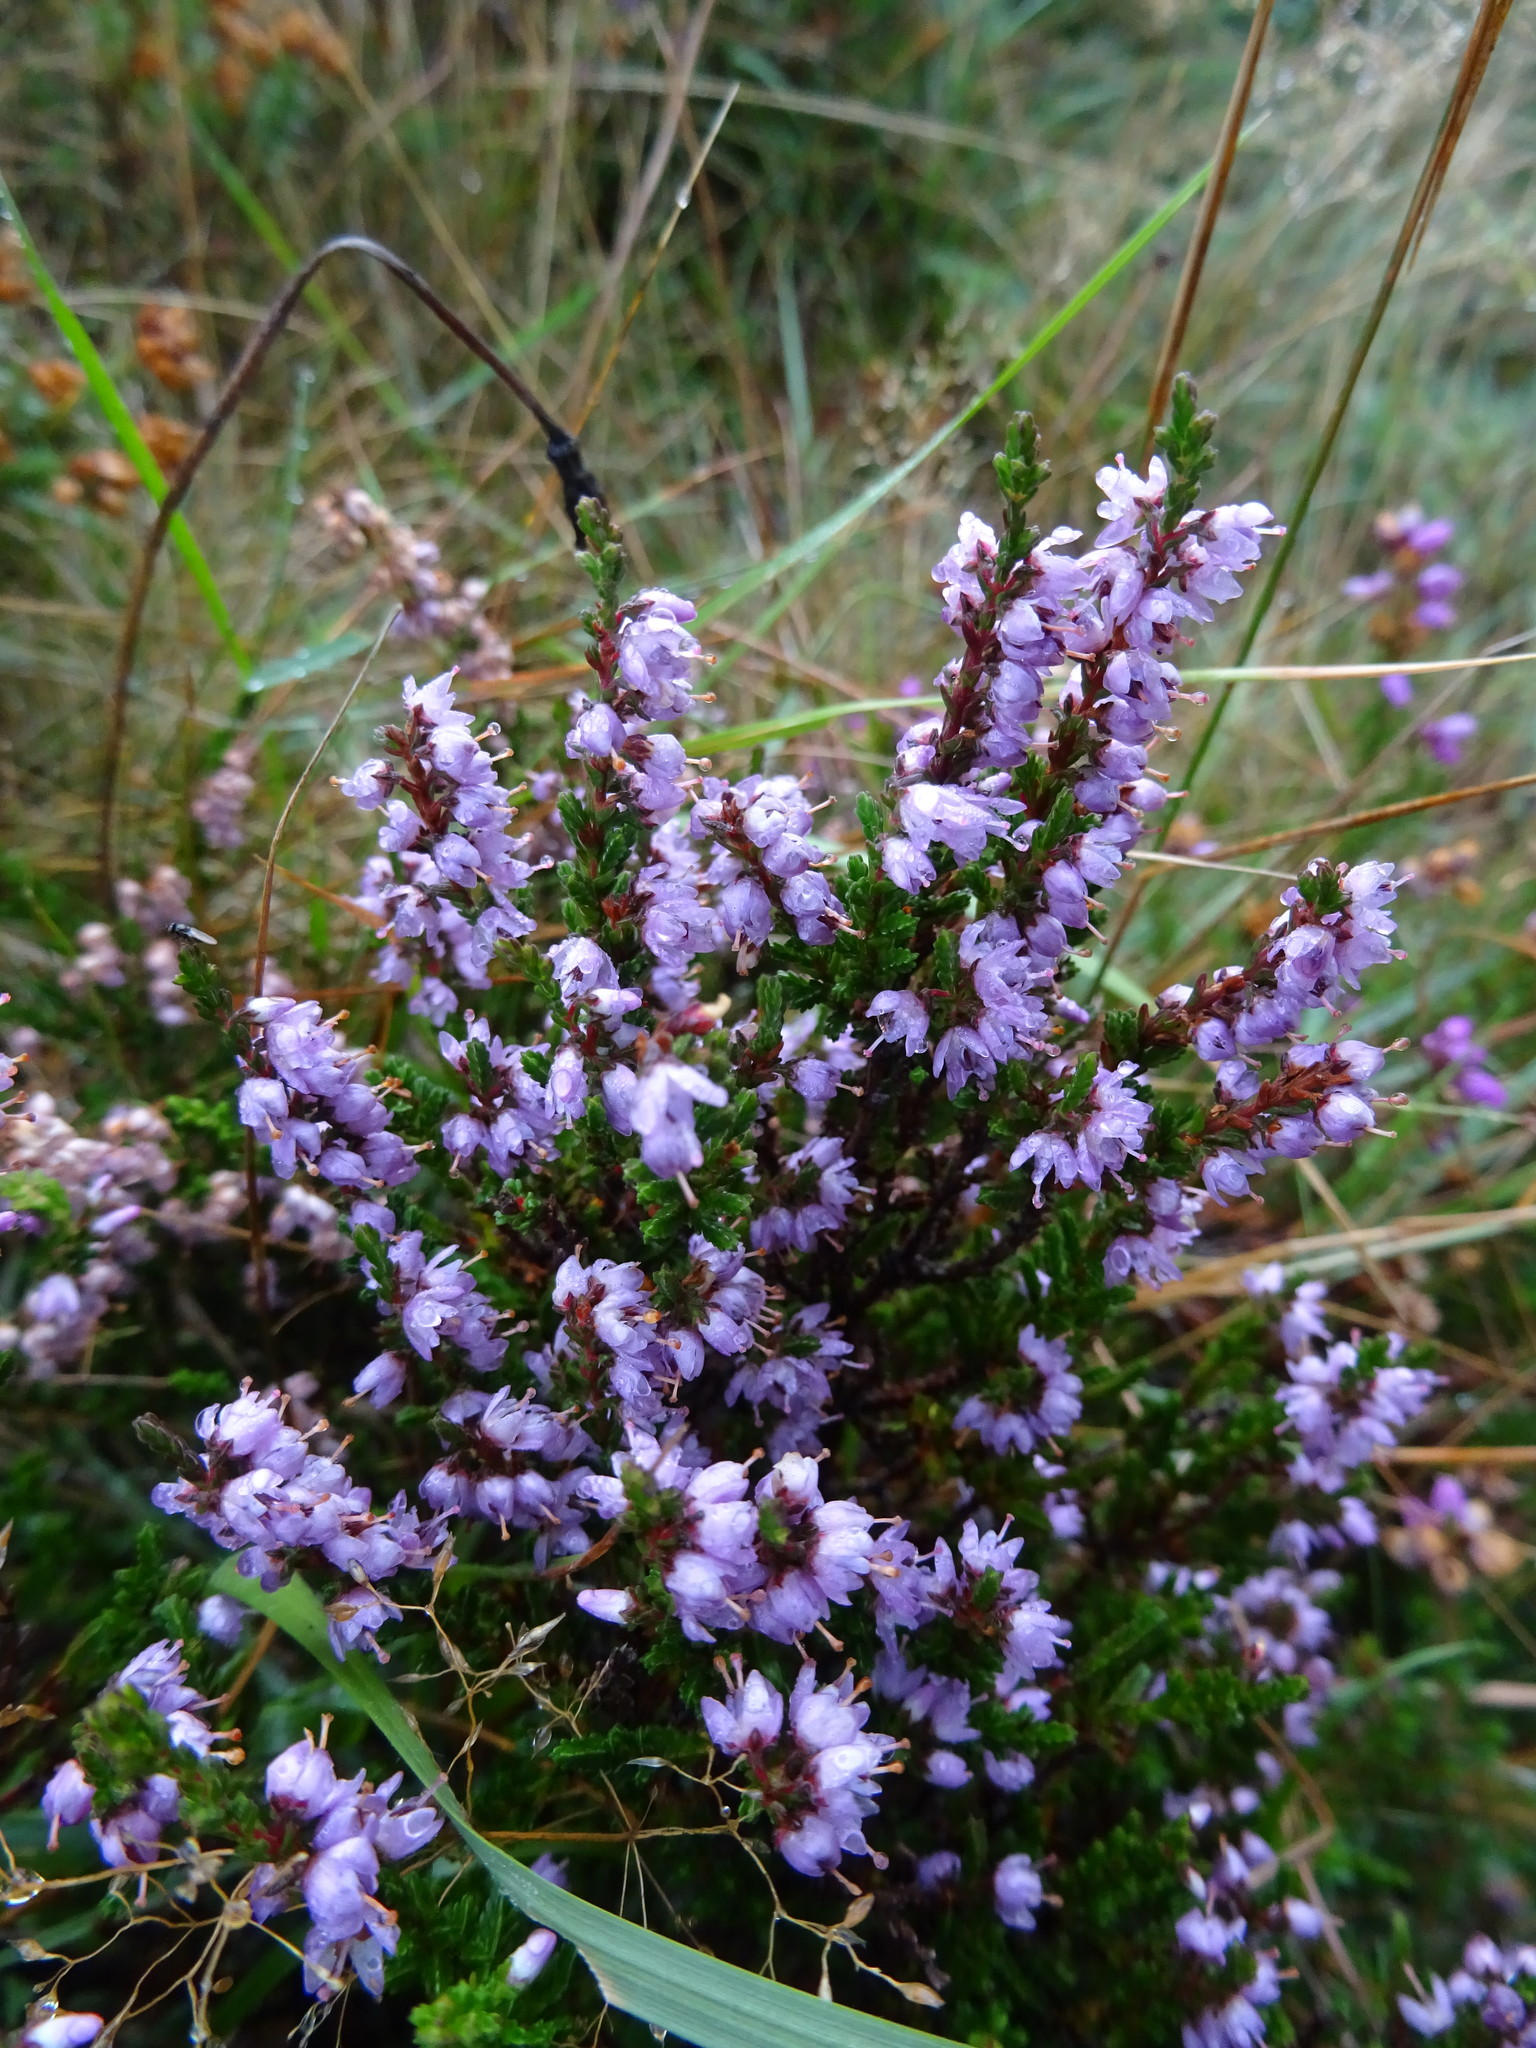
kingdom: Plantae
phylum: Tracheophyta
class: Magnoliopsida
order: Ericales
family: Ericaceae
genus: Calluna
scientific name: Calluna vulgaris
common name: Heather
